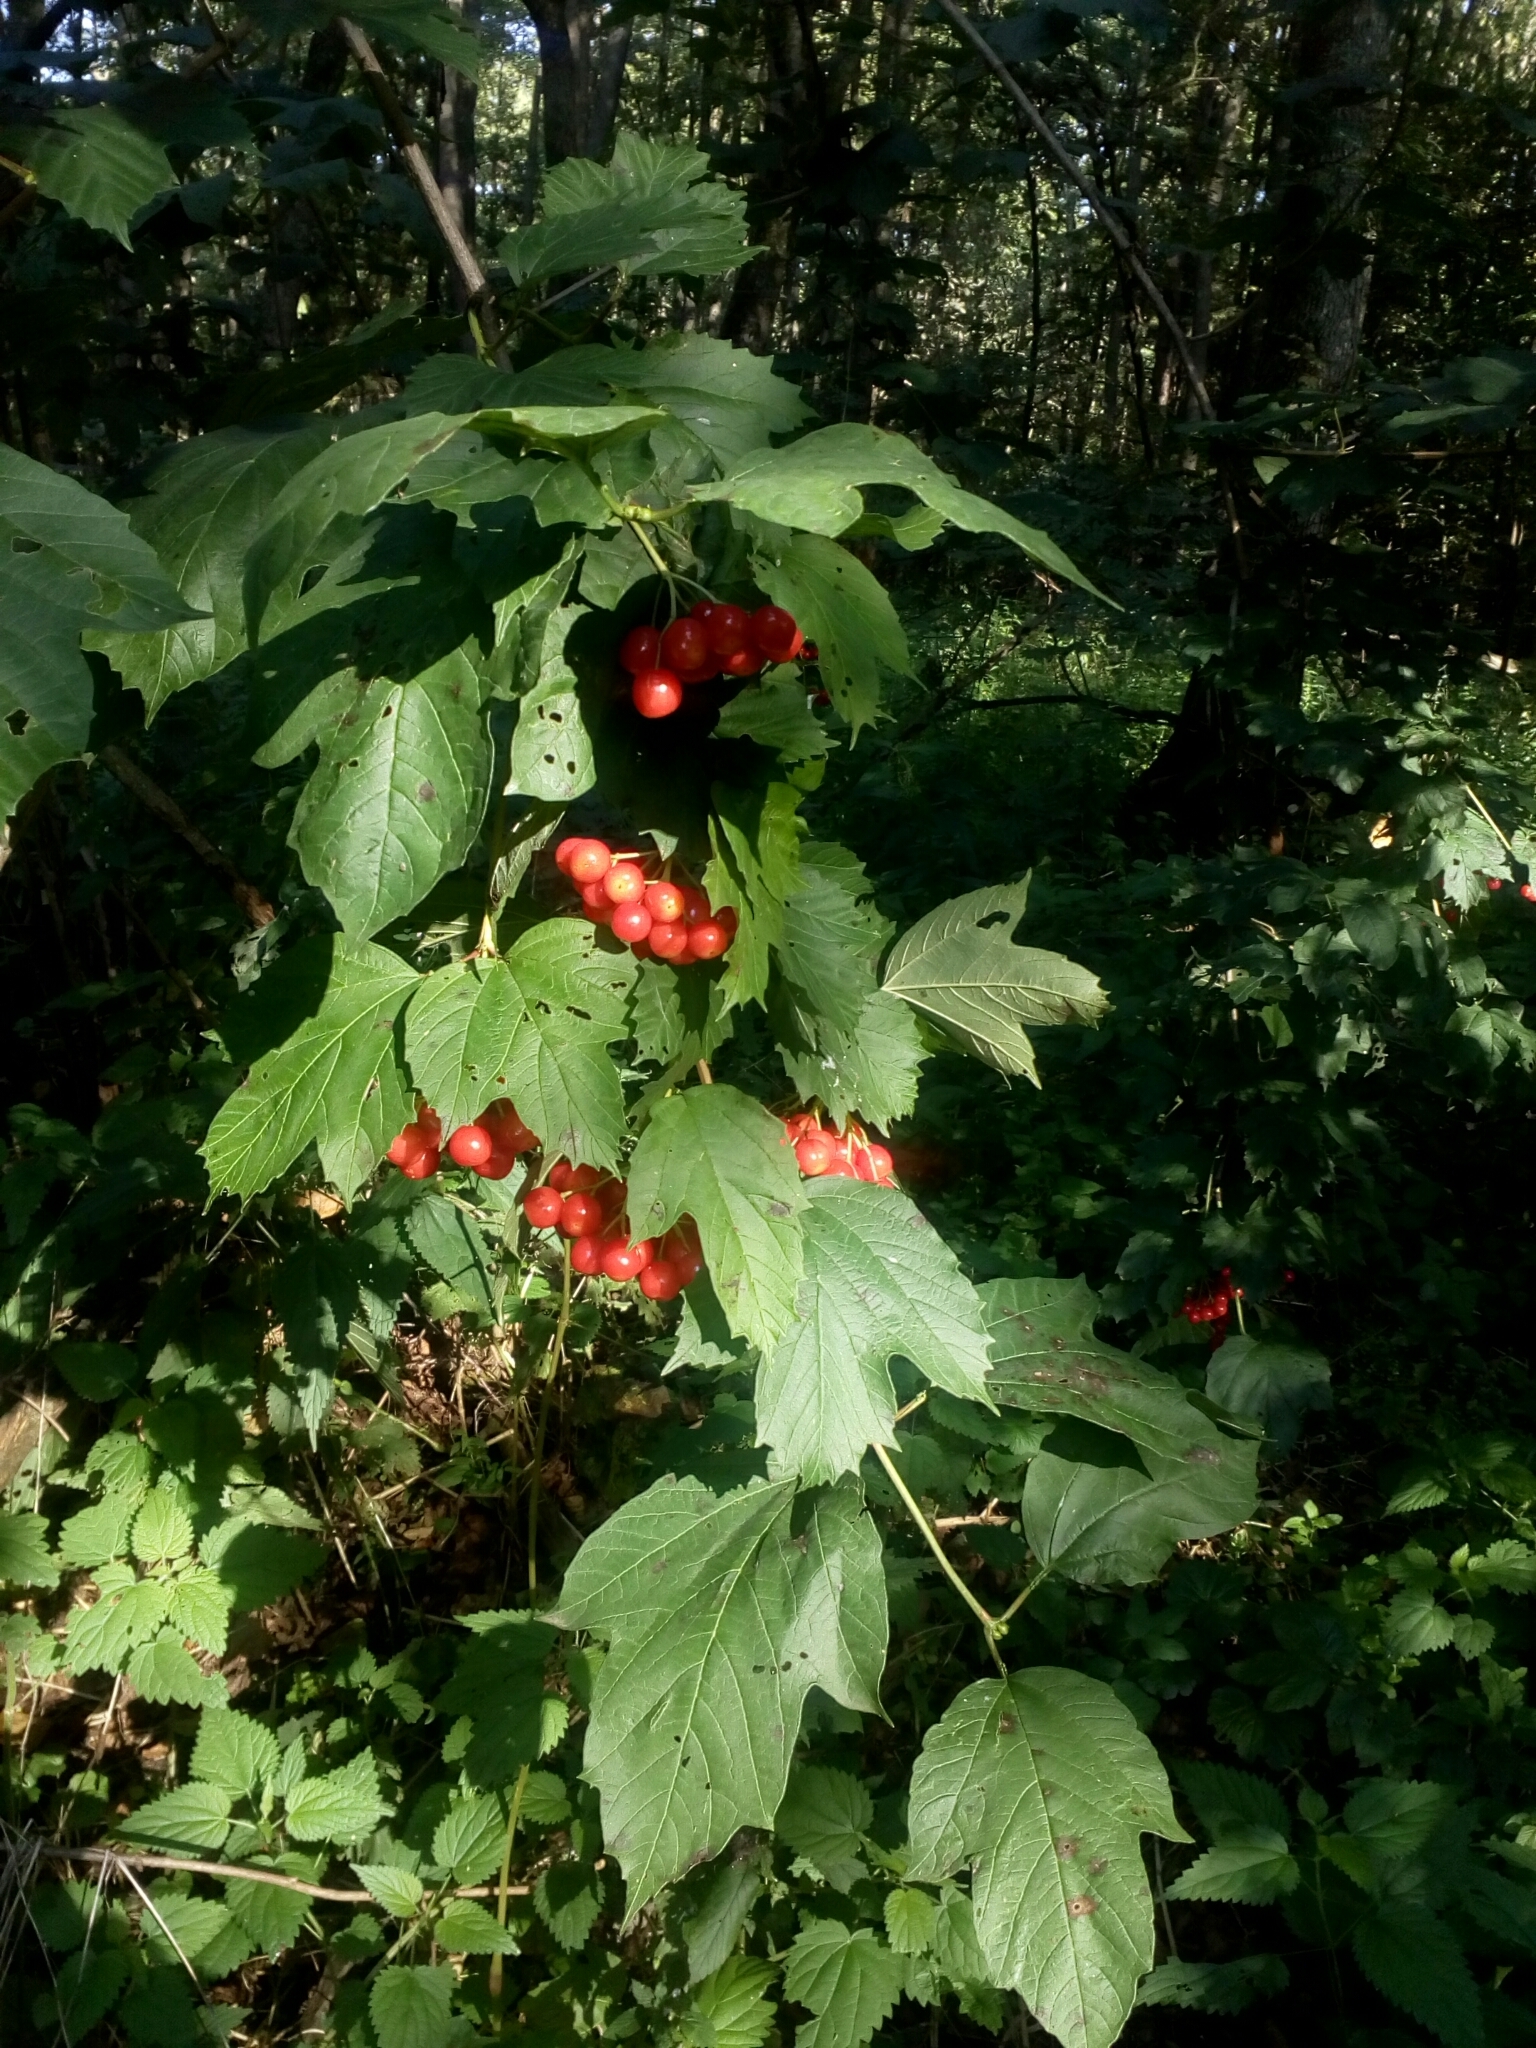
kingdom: Plantae
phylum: Tracheophyta
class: Magnoliopsida
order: Dipsacales
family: Viburnaceae
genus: Viburnum
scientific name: Viburnum opulus
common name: Guelder-rose
